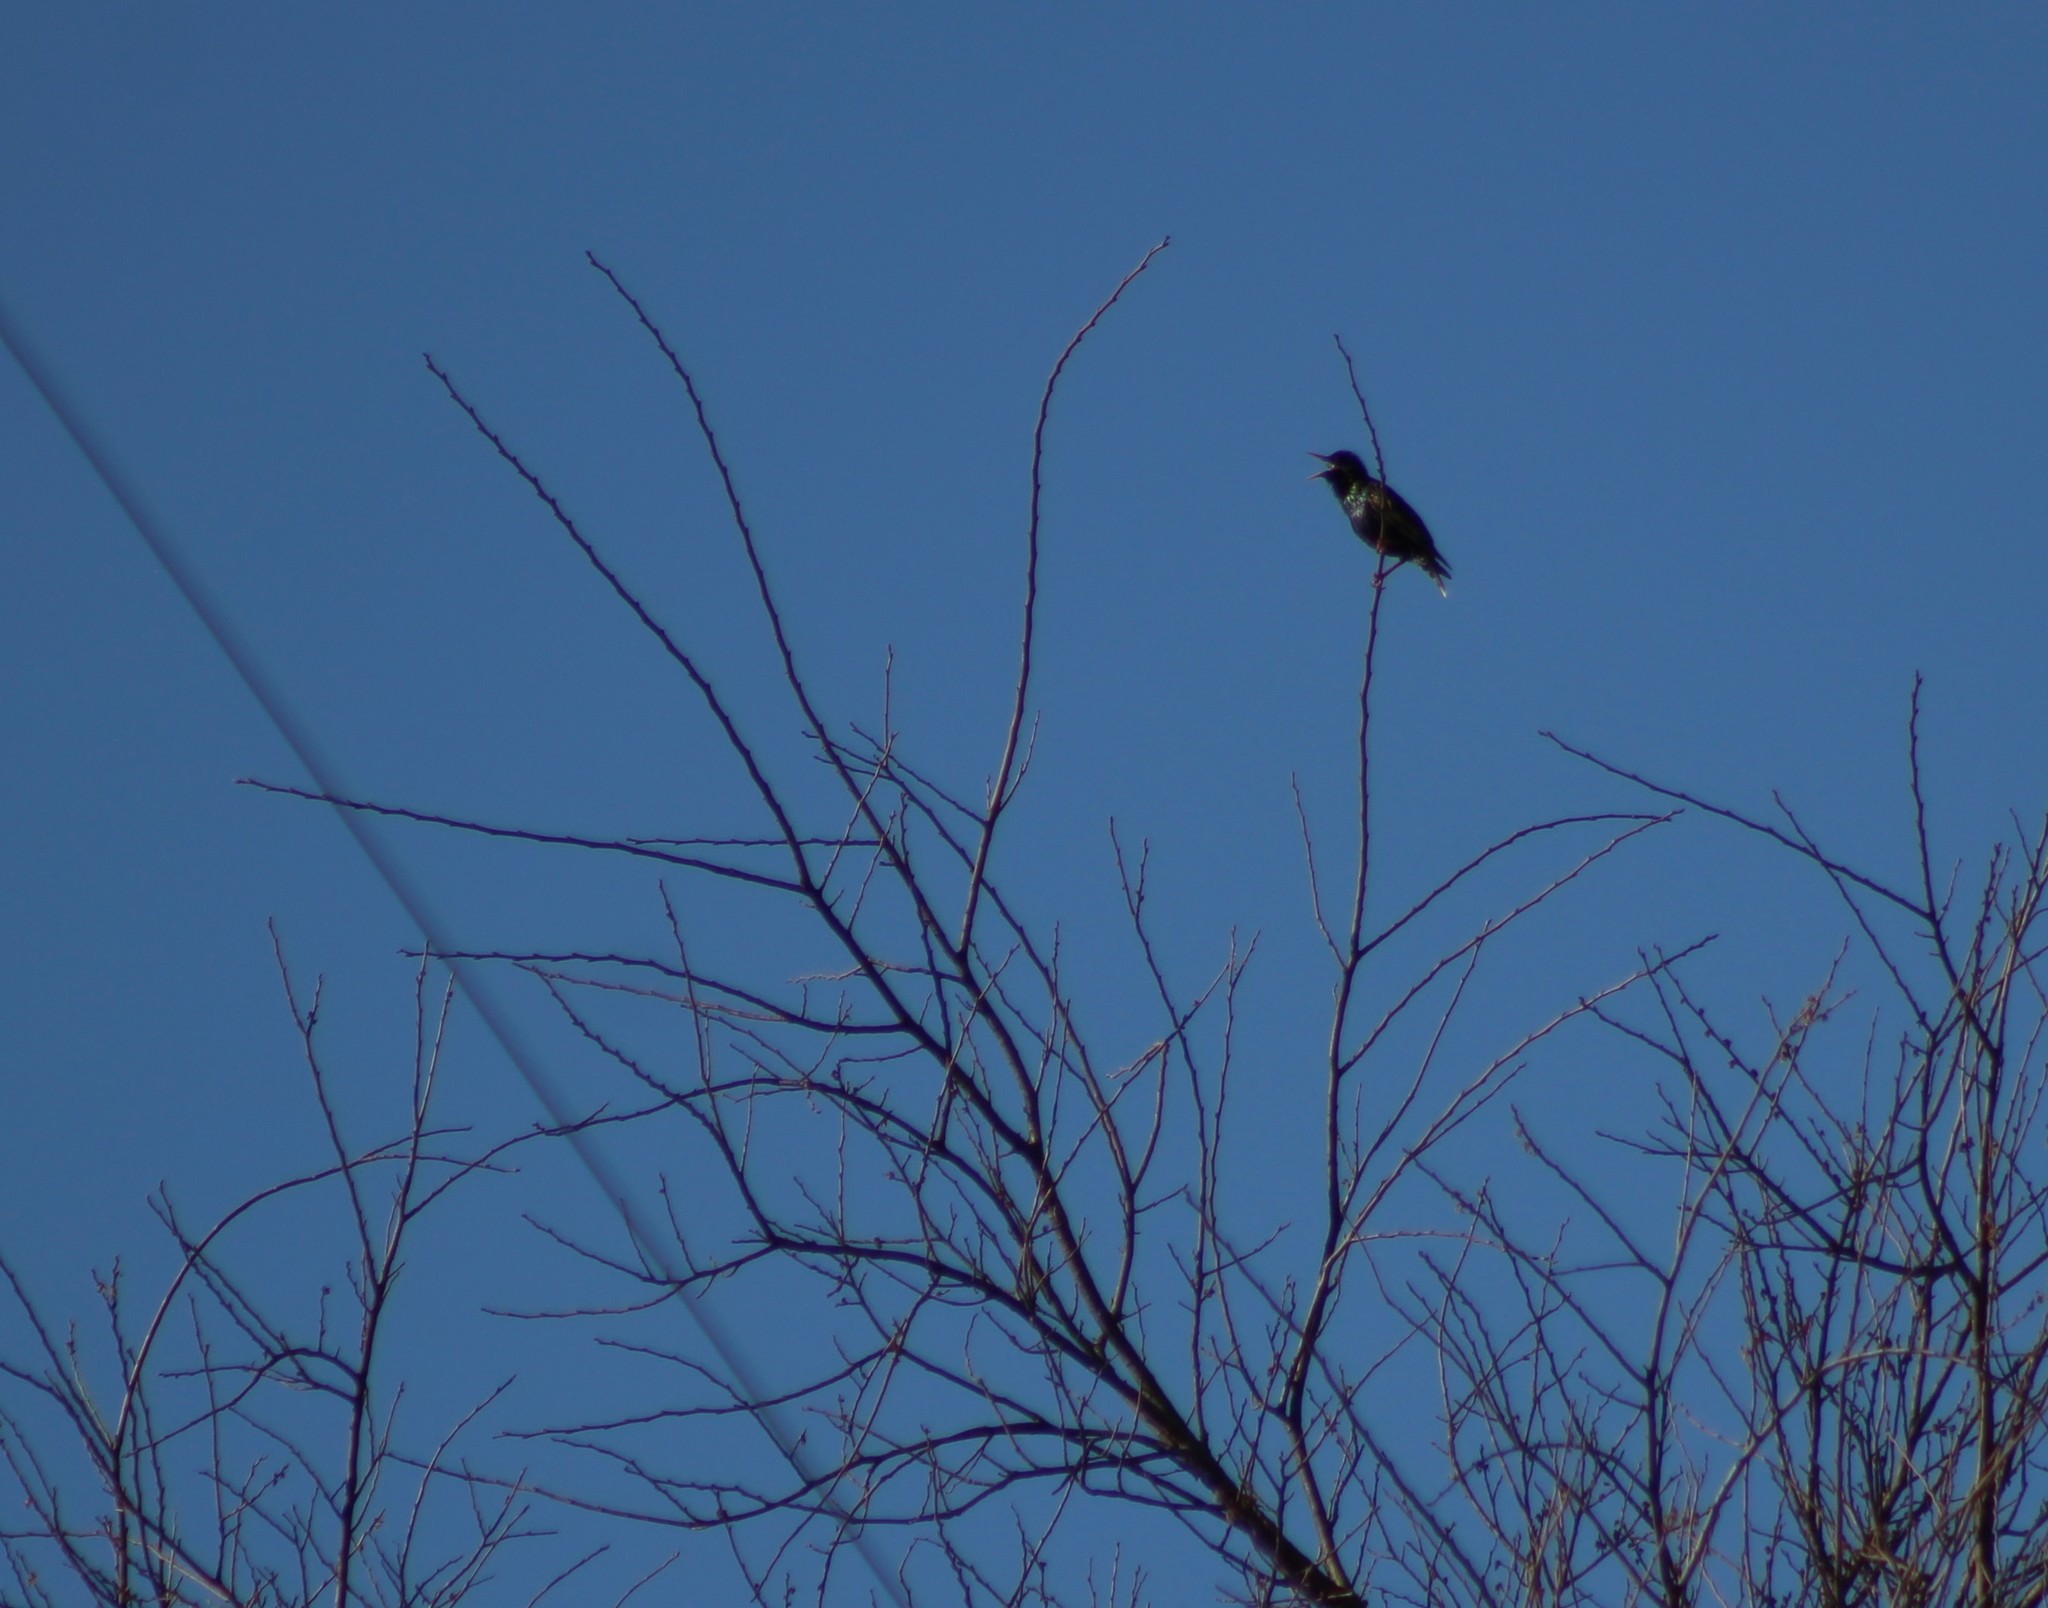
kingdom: Animalia
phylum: Chordata
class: Aves
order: Passeriformes
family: Sturnidae
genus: Sturnus
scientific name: Sturnus vulgaris
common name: Common starling
